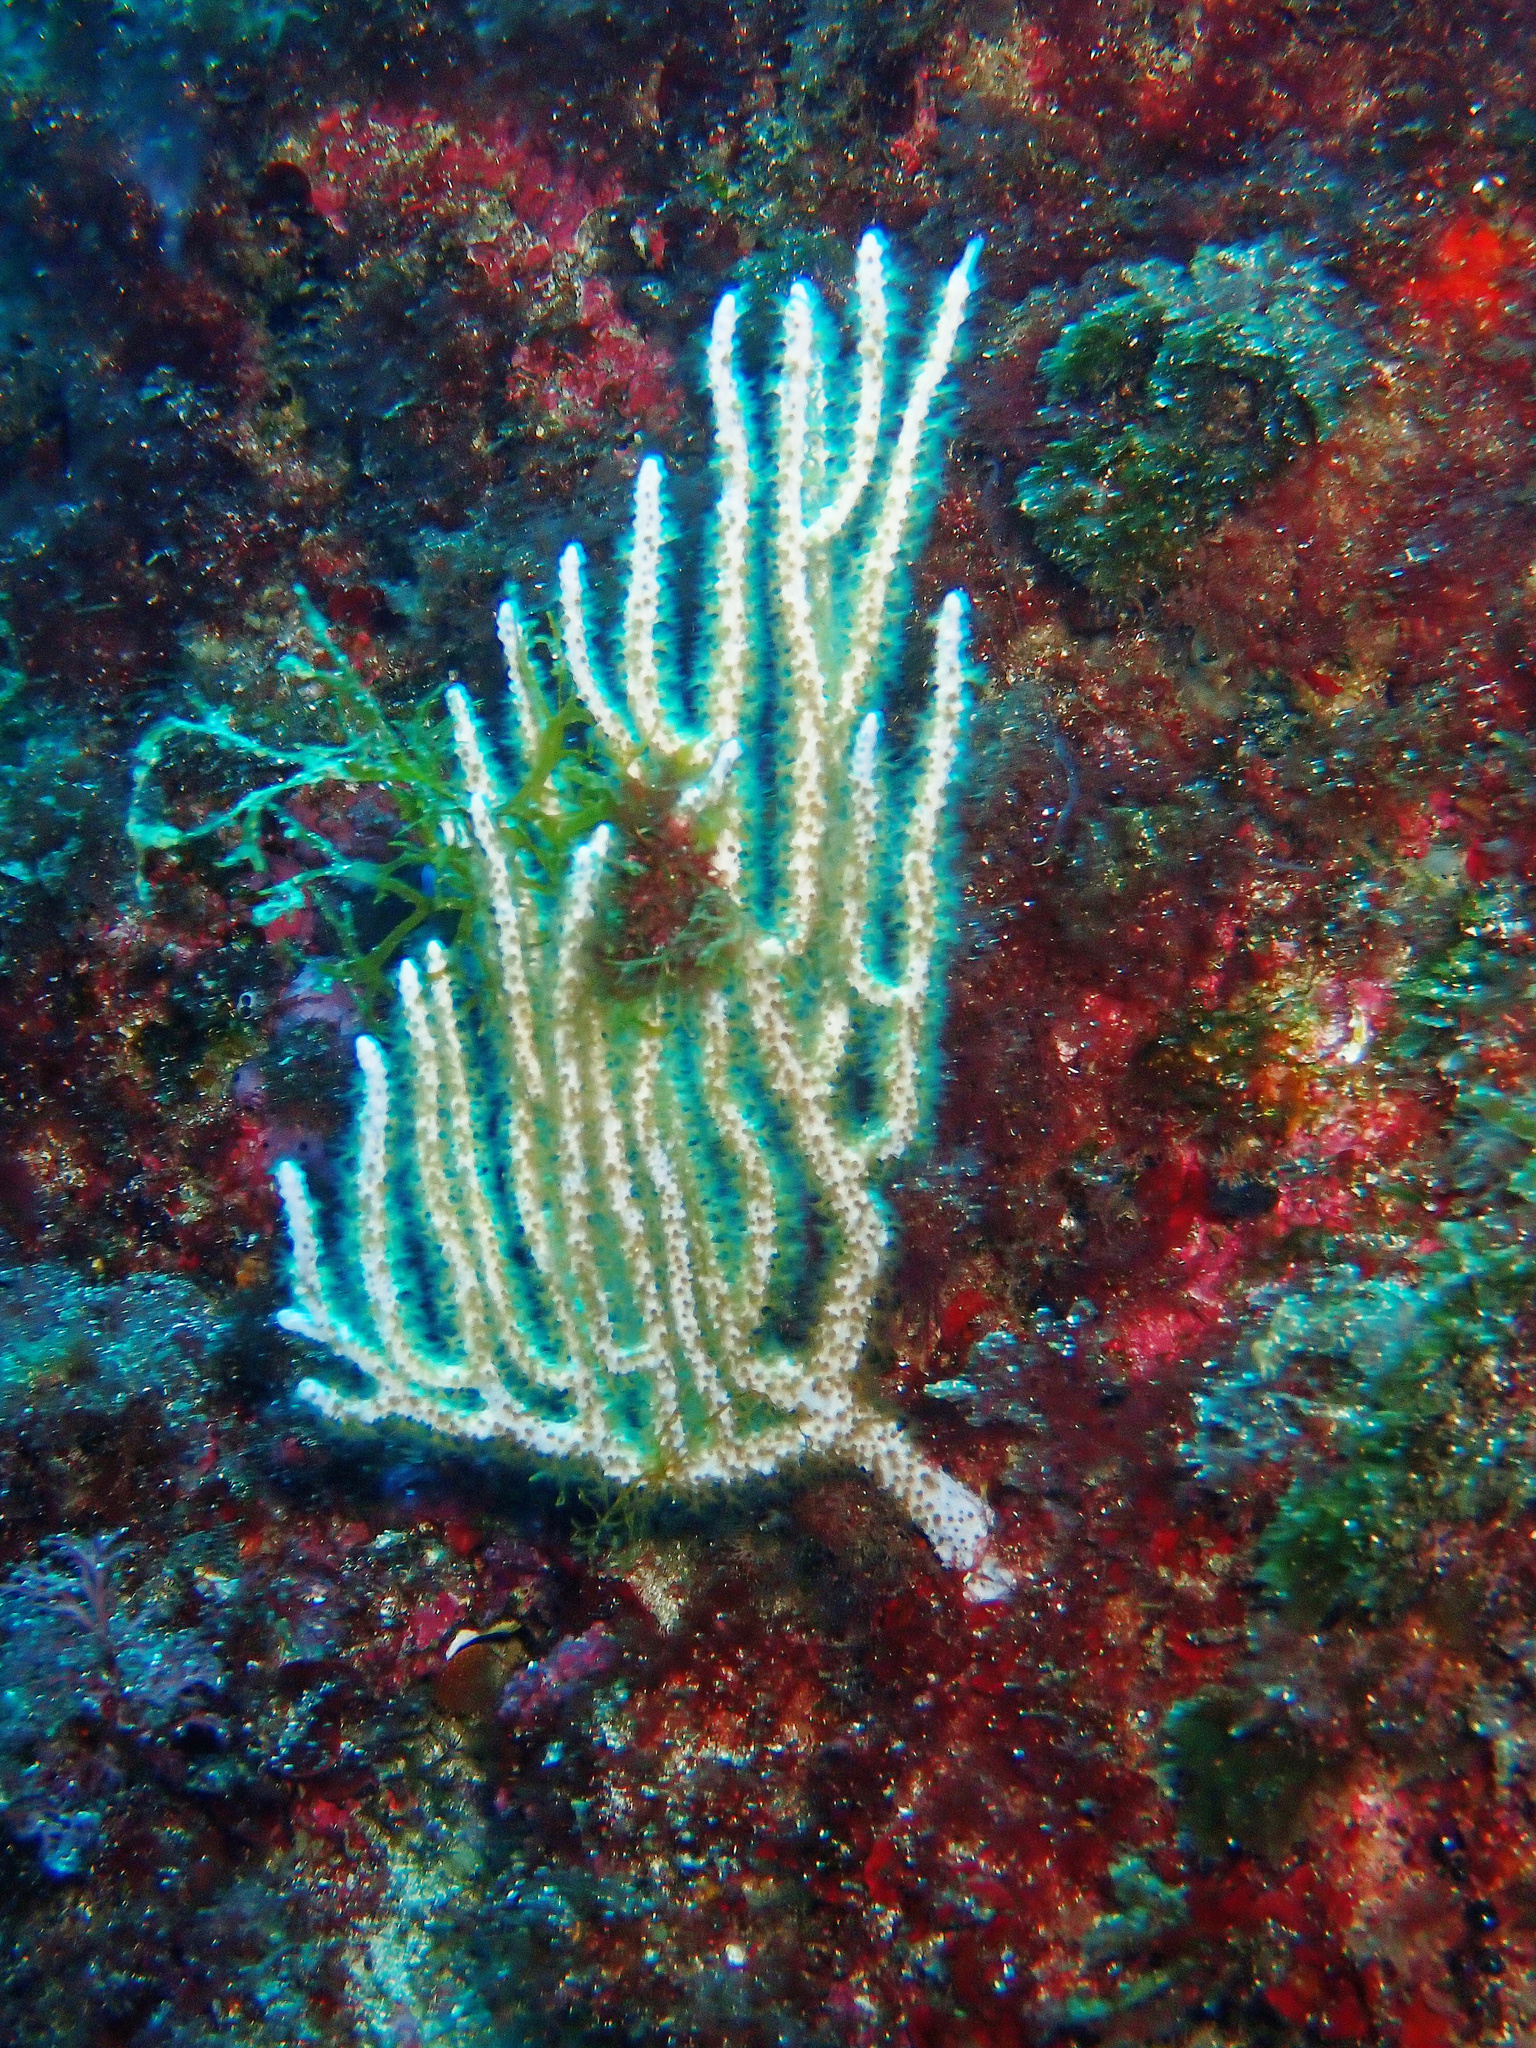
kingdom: Animalia
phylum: Cnidaria
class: Anthozoa
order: Malacalcyonacea
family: Eunicellidae
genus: Eunicella
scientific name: Eunicella singularis
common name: White horny coral
